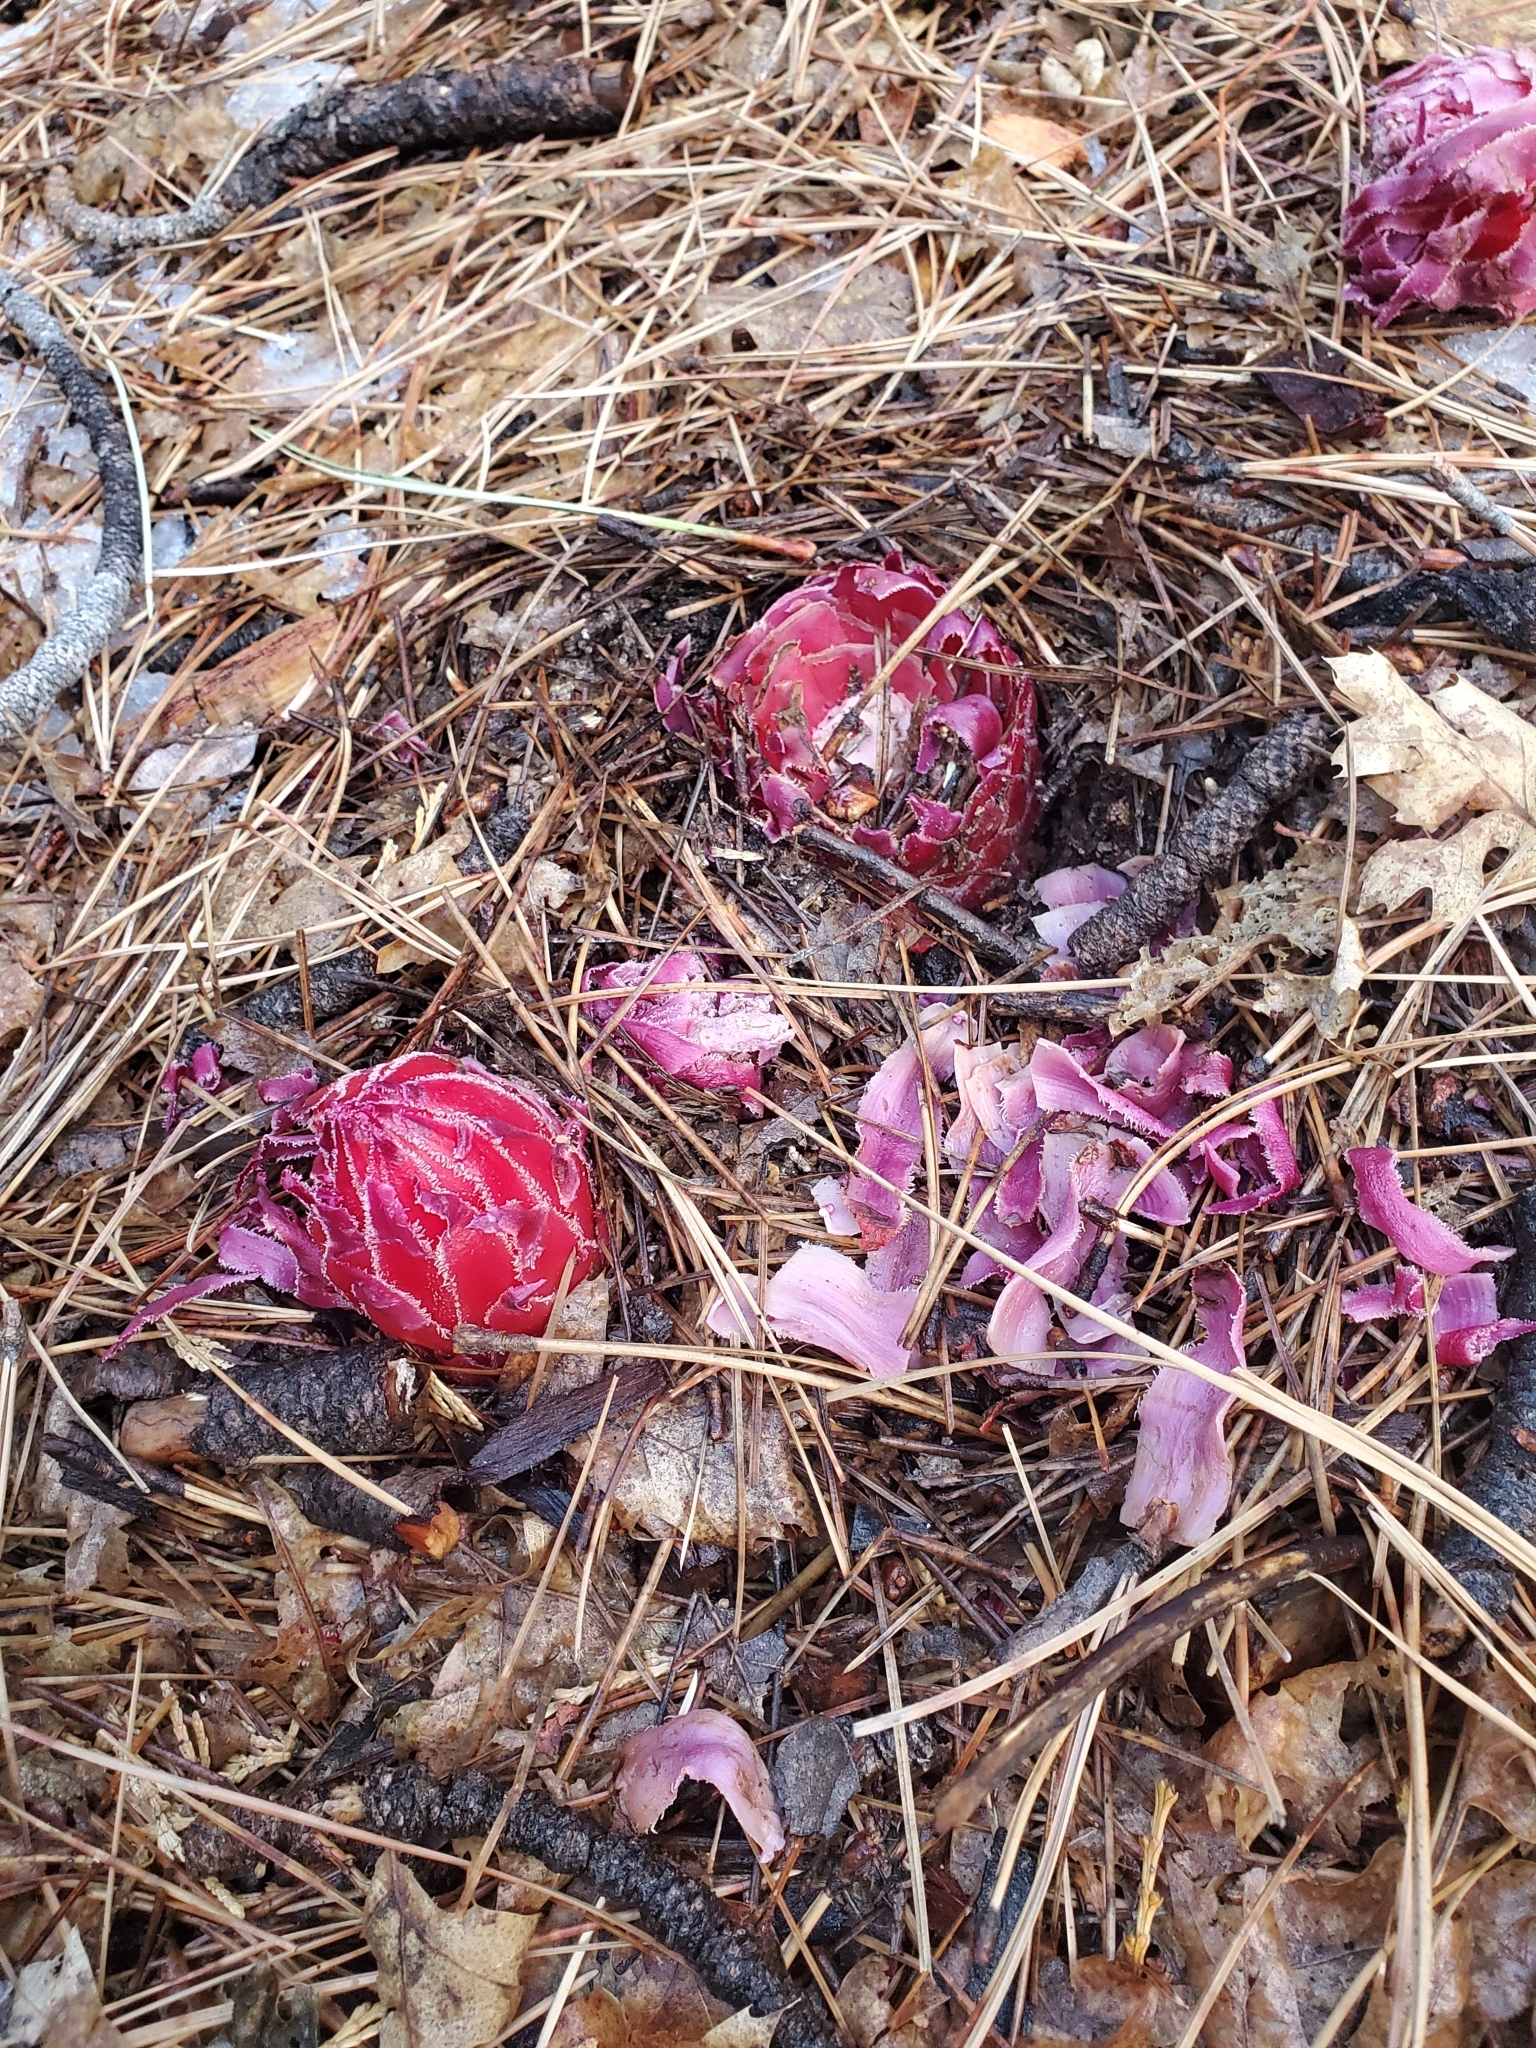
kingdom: Plantae
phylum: Tracheophyta
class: Magnoliopsida
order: Ericales
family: Ericaceae
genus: Sarcodes
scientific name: Sarcodes sanguinea
